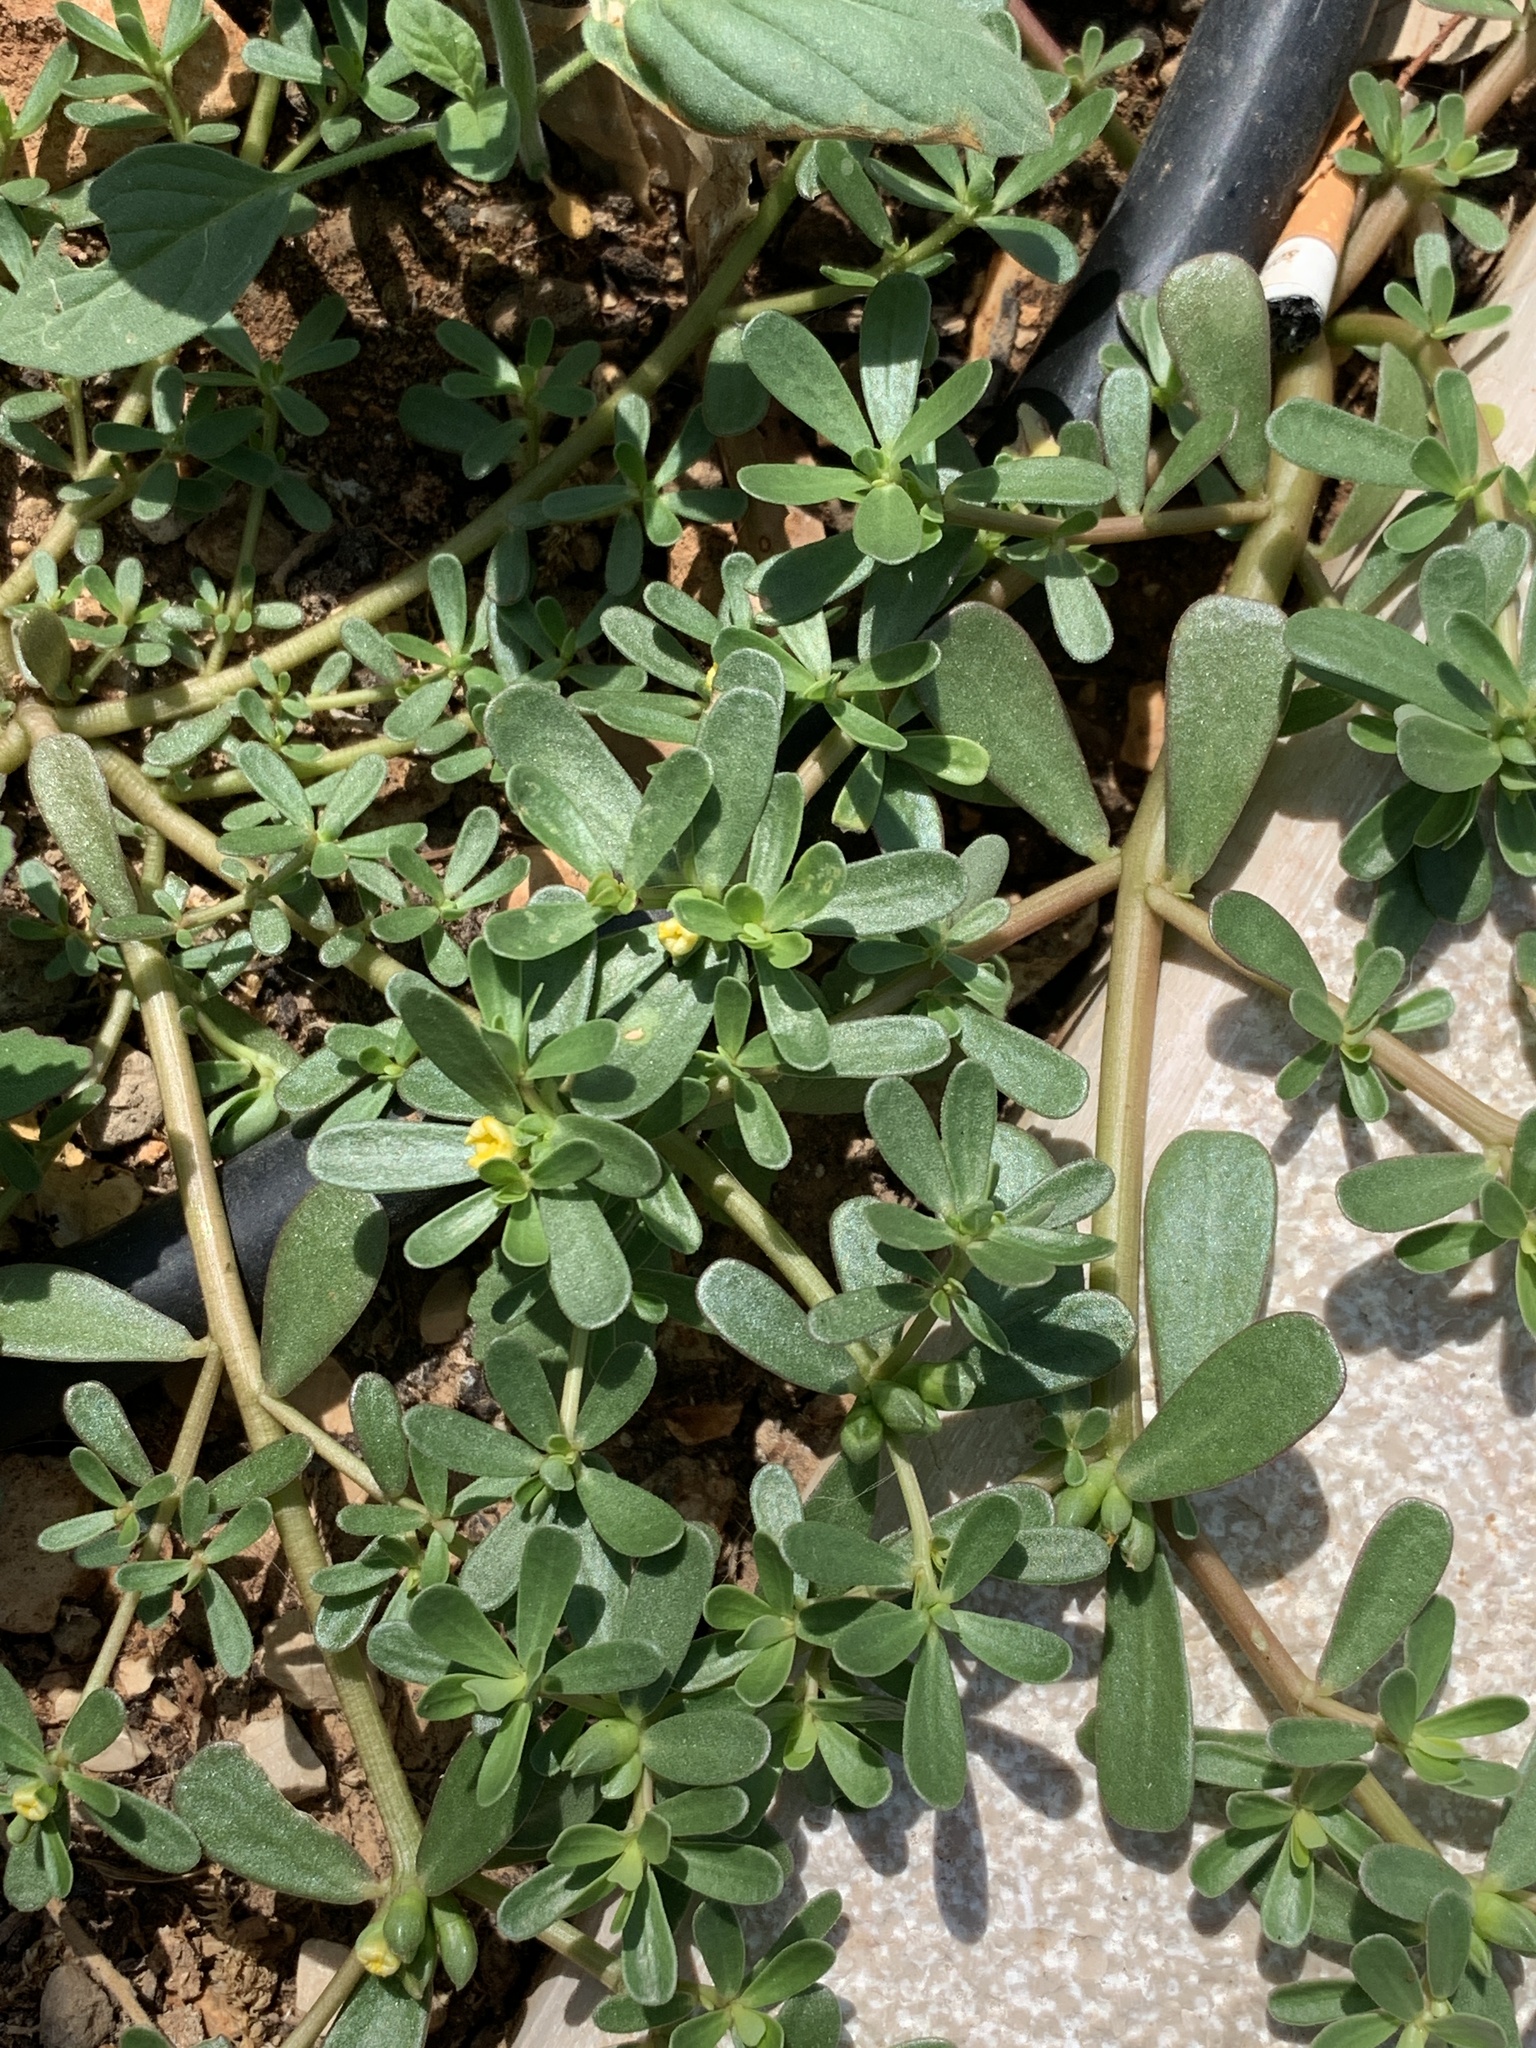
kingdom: Plantae
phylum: Tracheophyta
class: Magnoliopsida
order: Caryophyllales
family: Portulacaceae
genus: Portulaca
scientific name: Portulaca oleracea
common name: Common purslane
